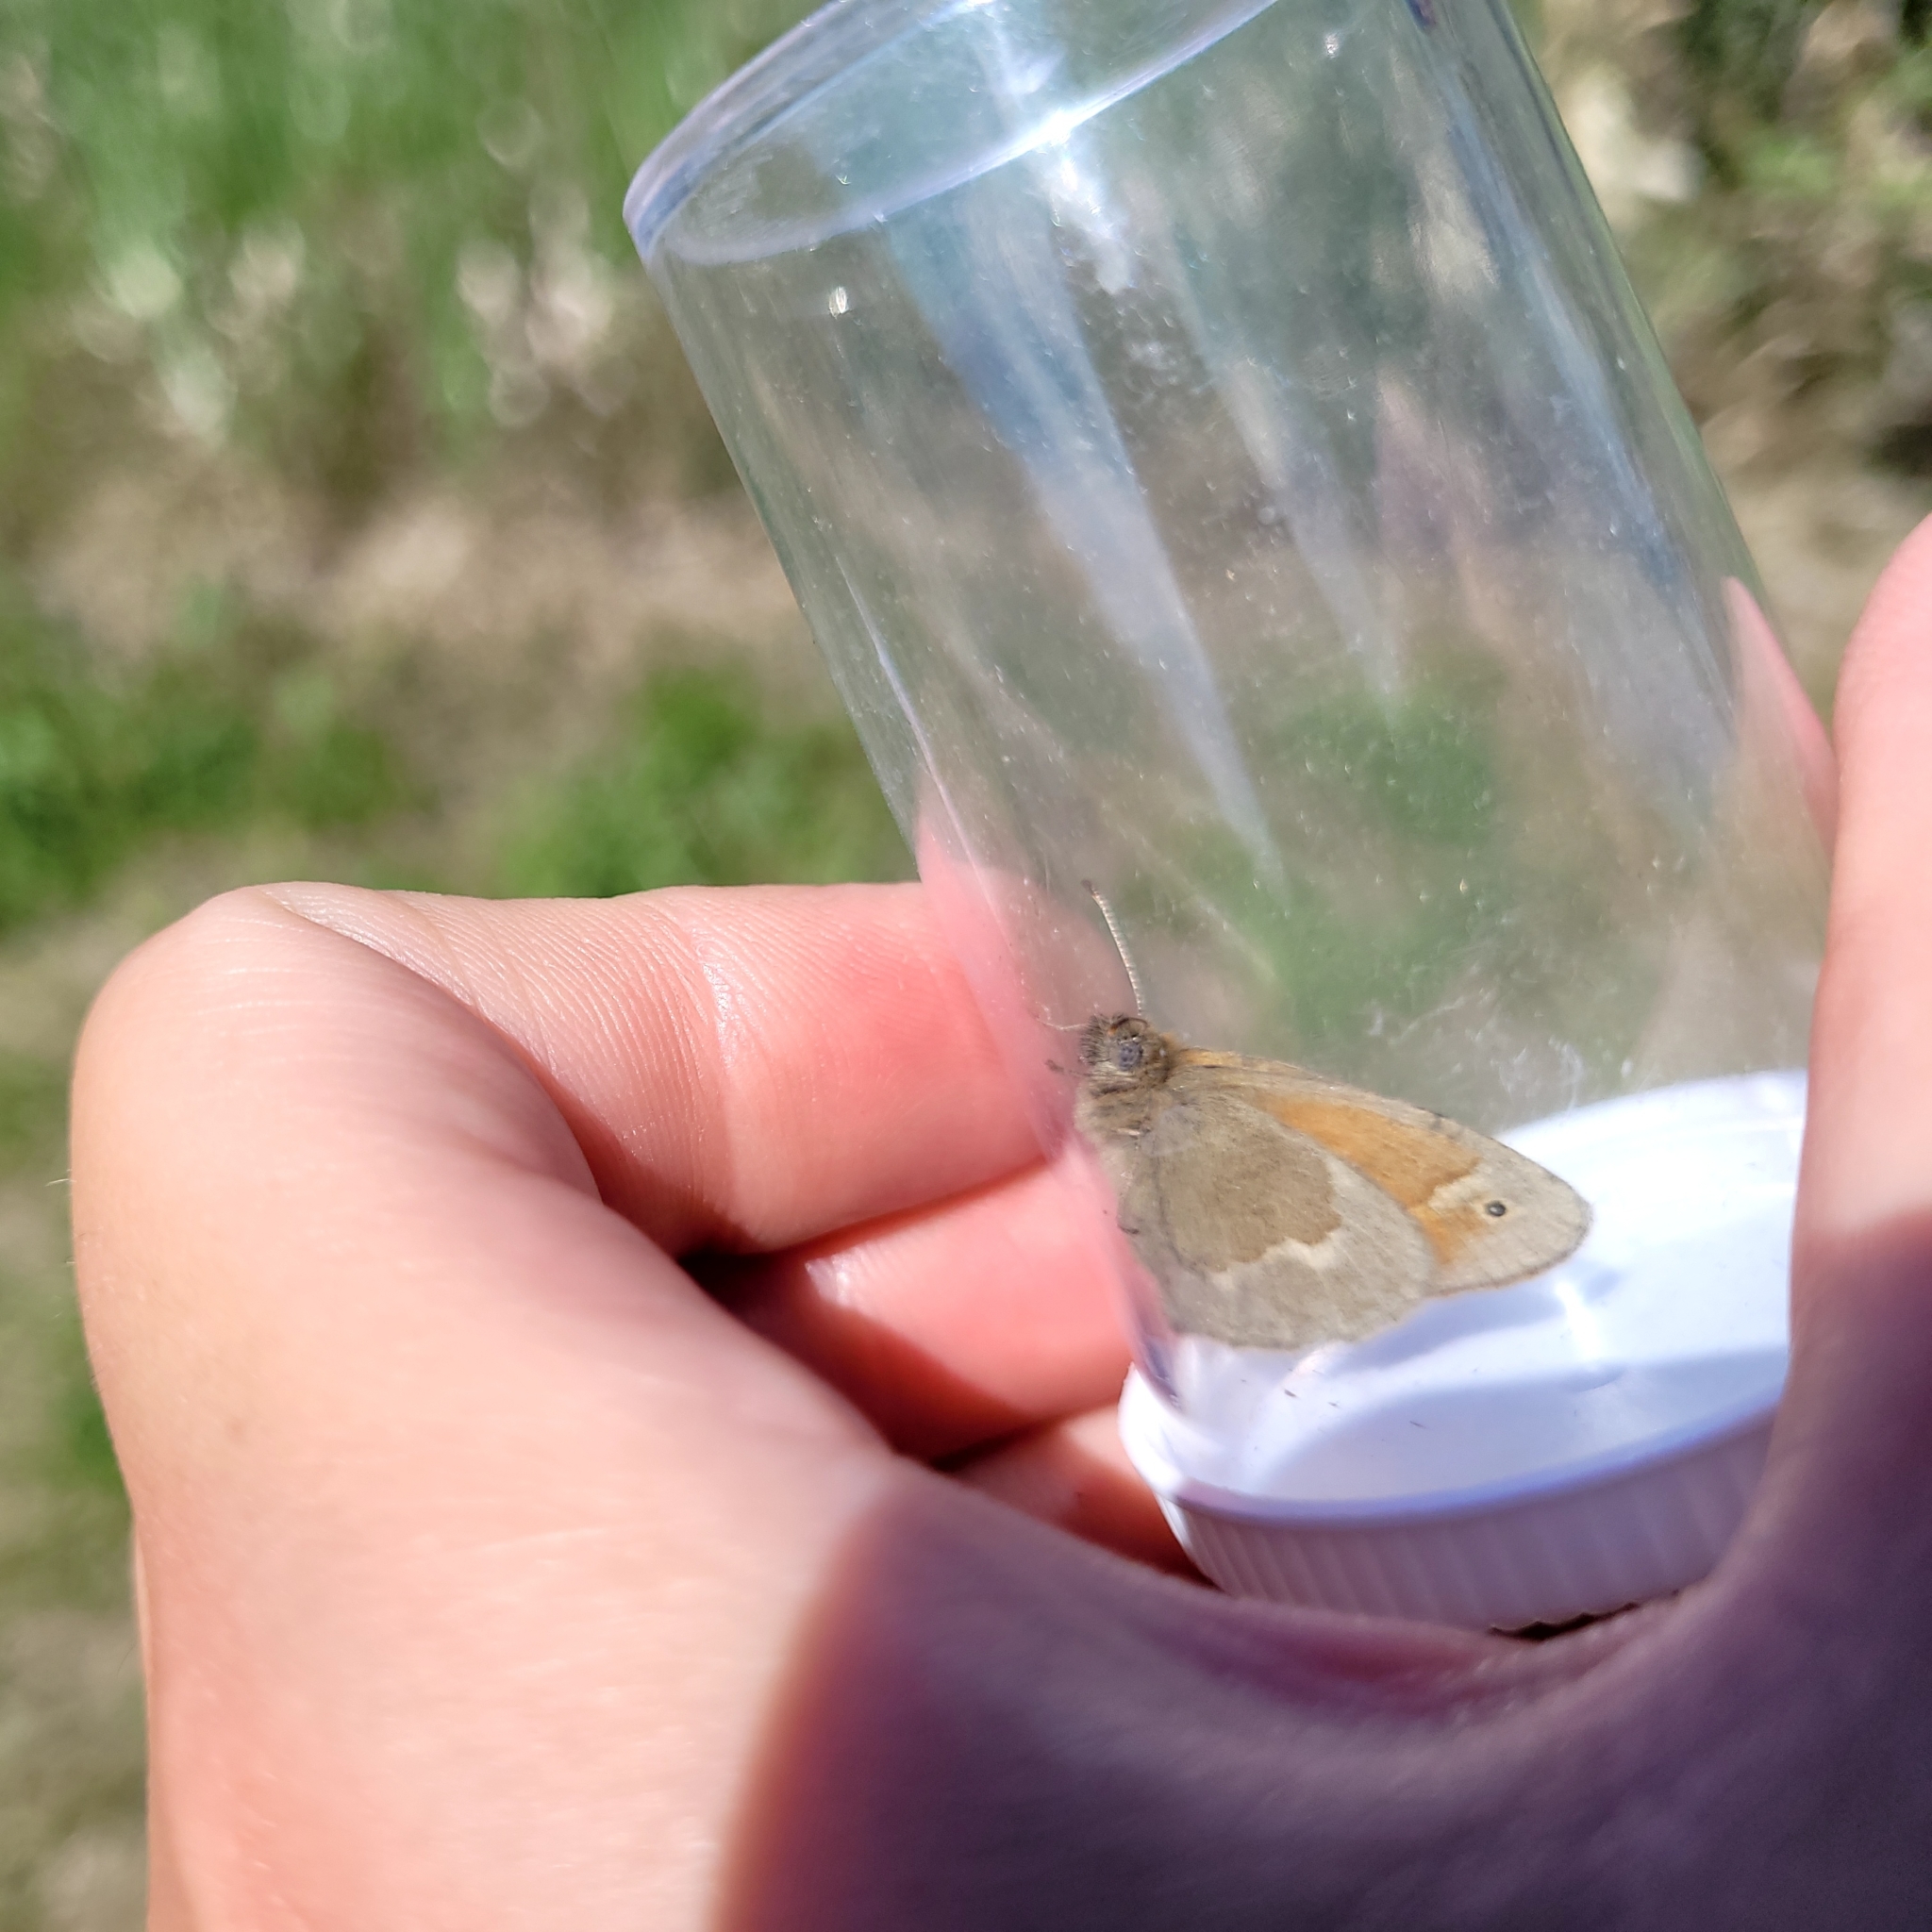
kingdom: Animalia
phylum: Arthropoda
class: Insecta
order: Lepidoptera
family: Nymphalidae
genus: Coenonympha
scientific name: Coenonympha california
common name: Common ringlet
